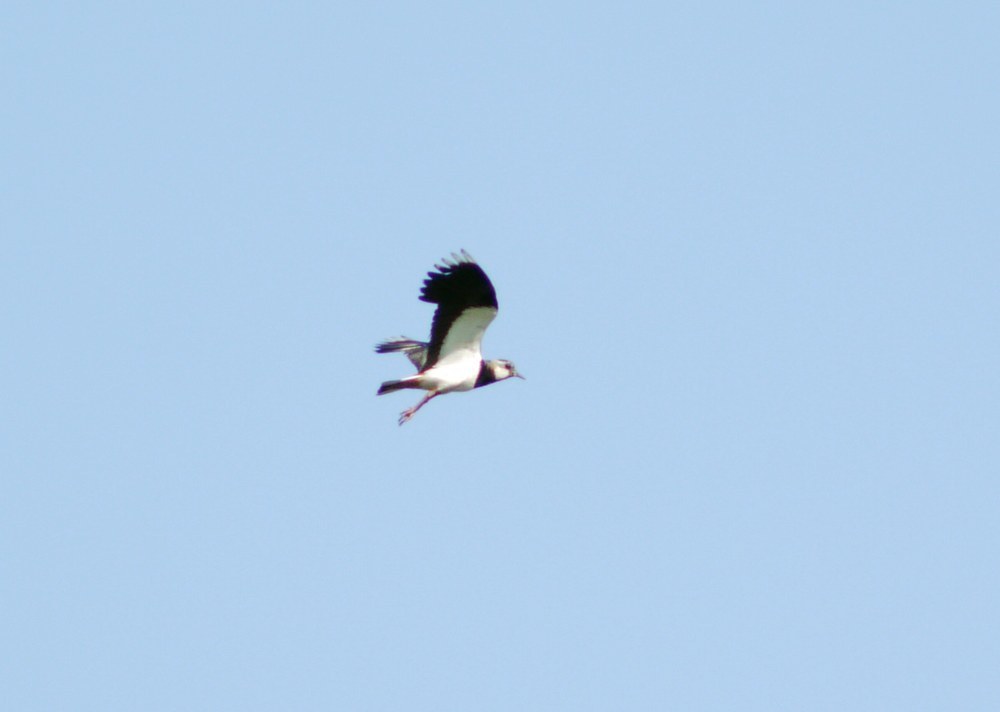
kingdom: Animalia
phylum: Chordata
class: Aves
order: Charadriiformes
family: Charadriidae
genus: Vanellus
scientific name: Vanellus vanellus
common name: Northern lapwing
